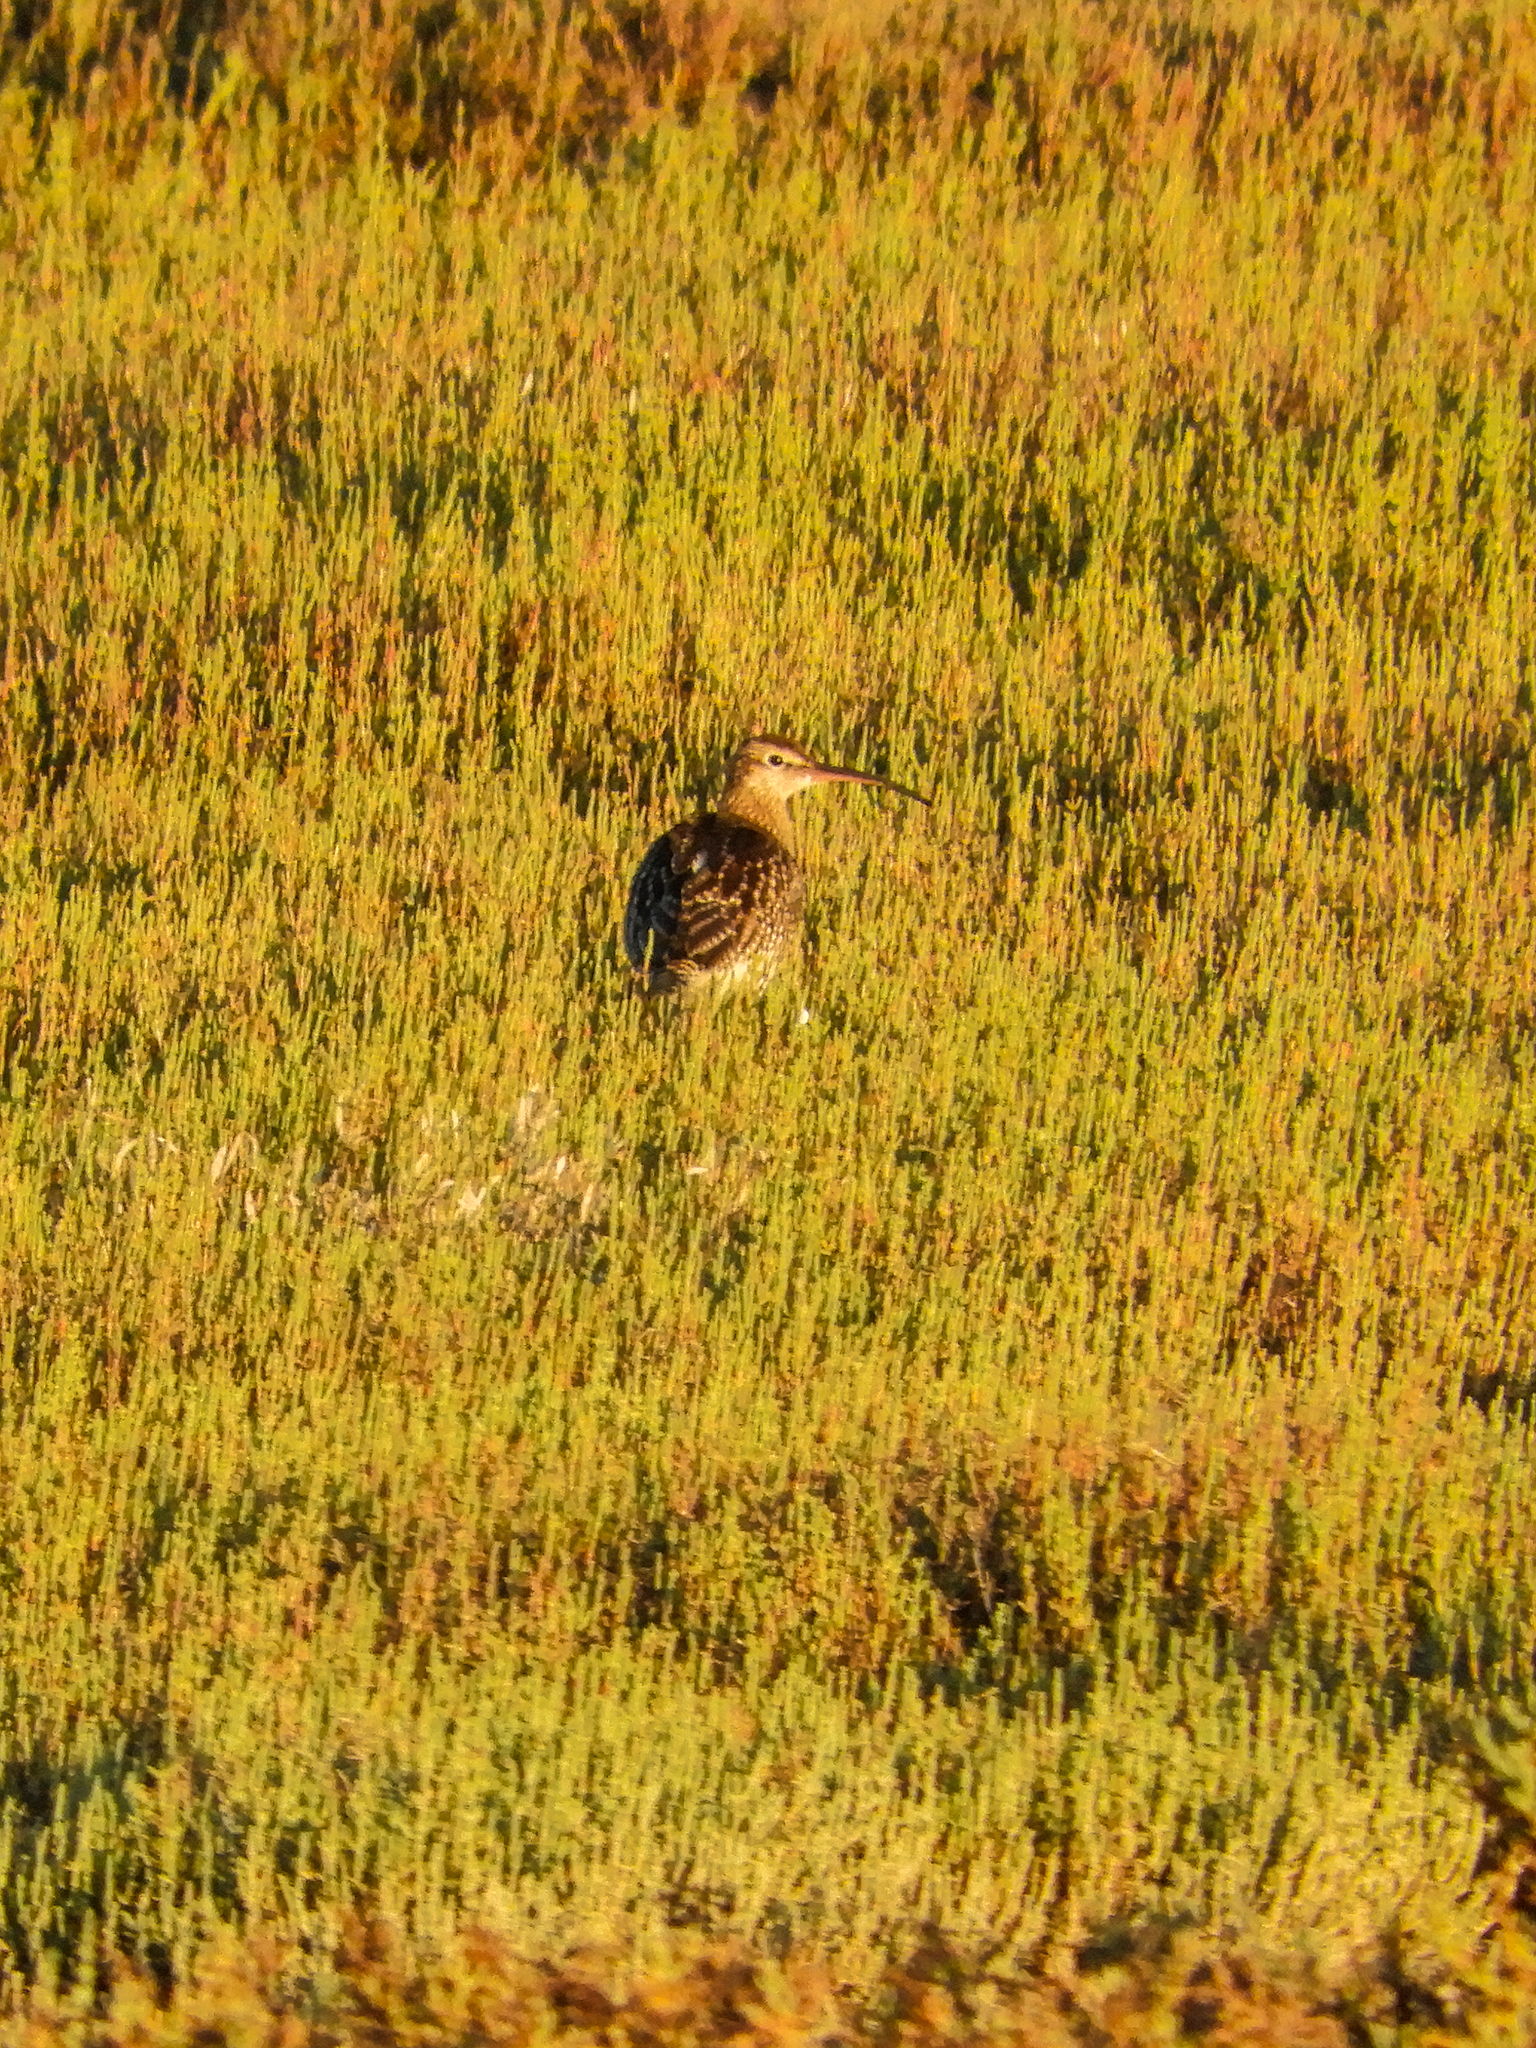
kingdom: Animalia
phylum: Chordata
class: Aves
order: Charadriiformes
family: Scolopacidae
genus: Numenius
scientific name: Numenius phaeopus
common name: Whimbrel
